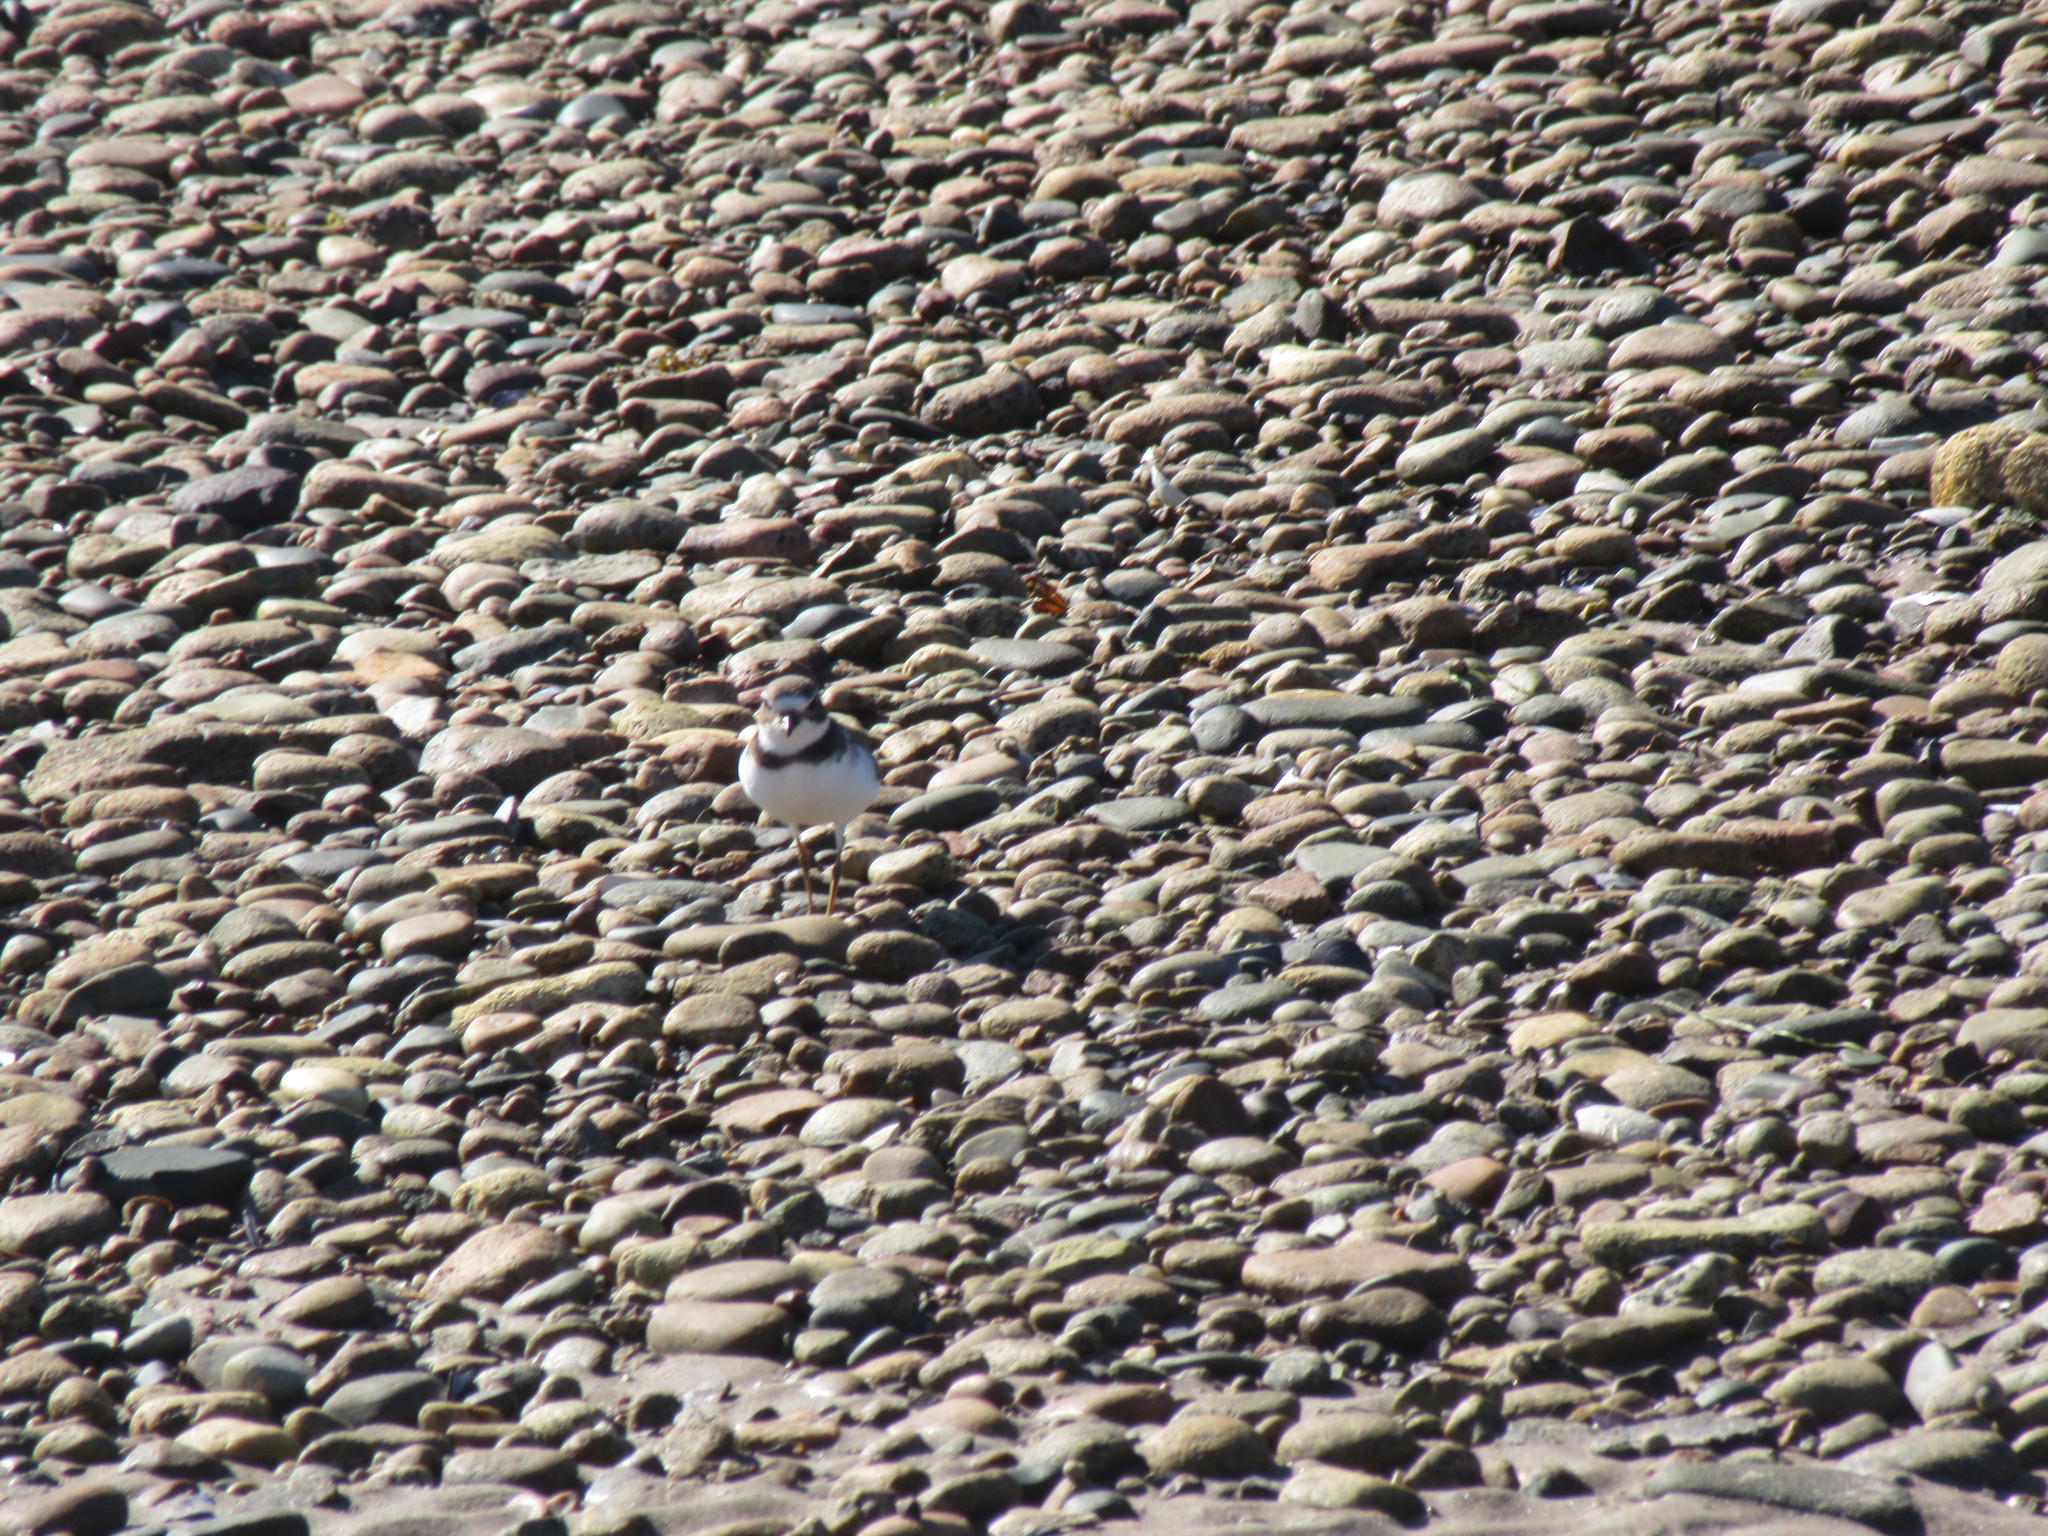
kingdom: Animalia
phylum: Chordata
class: Aves
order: Charadriiformes
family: Charadriidae
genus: Charadrius
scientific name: Charadrius semipalmatus
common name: Semipalmated plover
